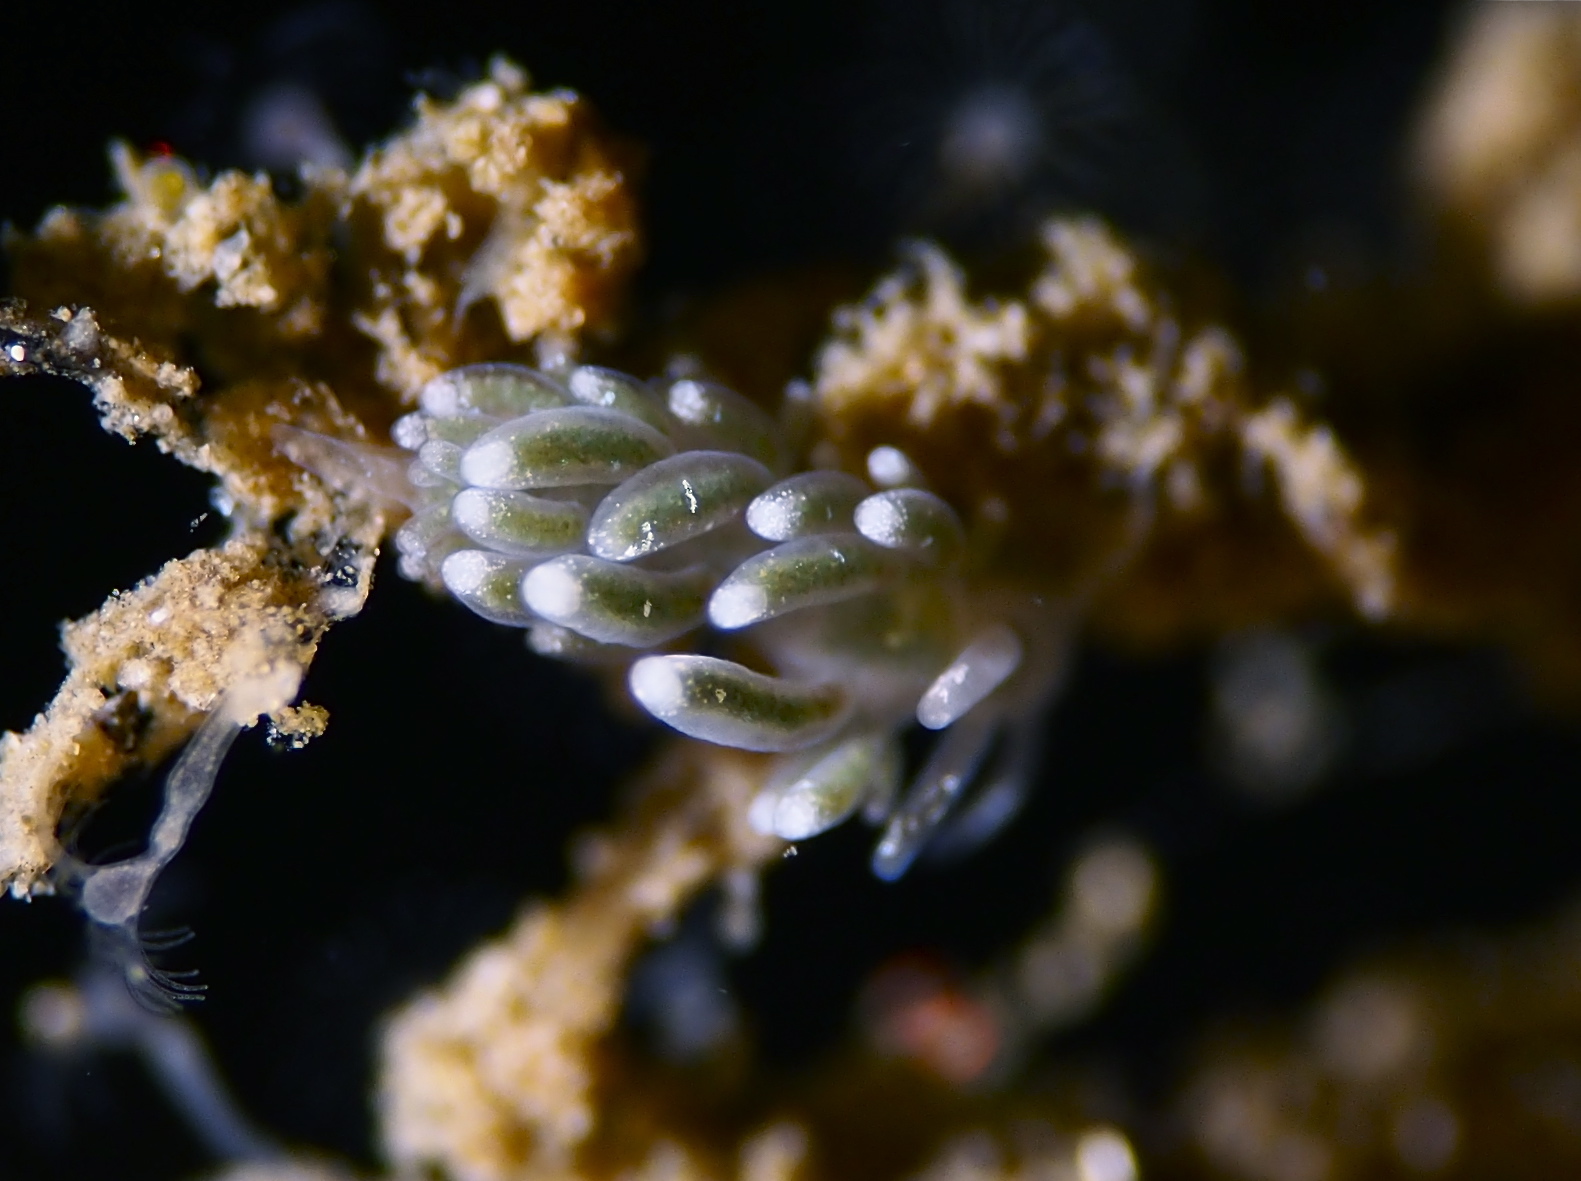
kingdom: Animalia
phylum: Mollusca
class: Gastropoda
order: Nudibranchia
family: Trinchesiidae
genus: Diaphoreolis
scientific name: Diaphoreolis viridis
